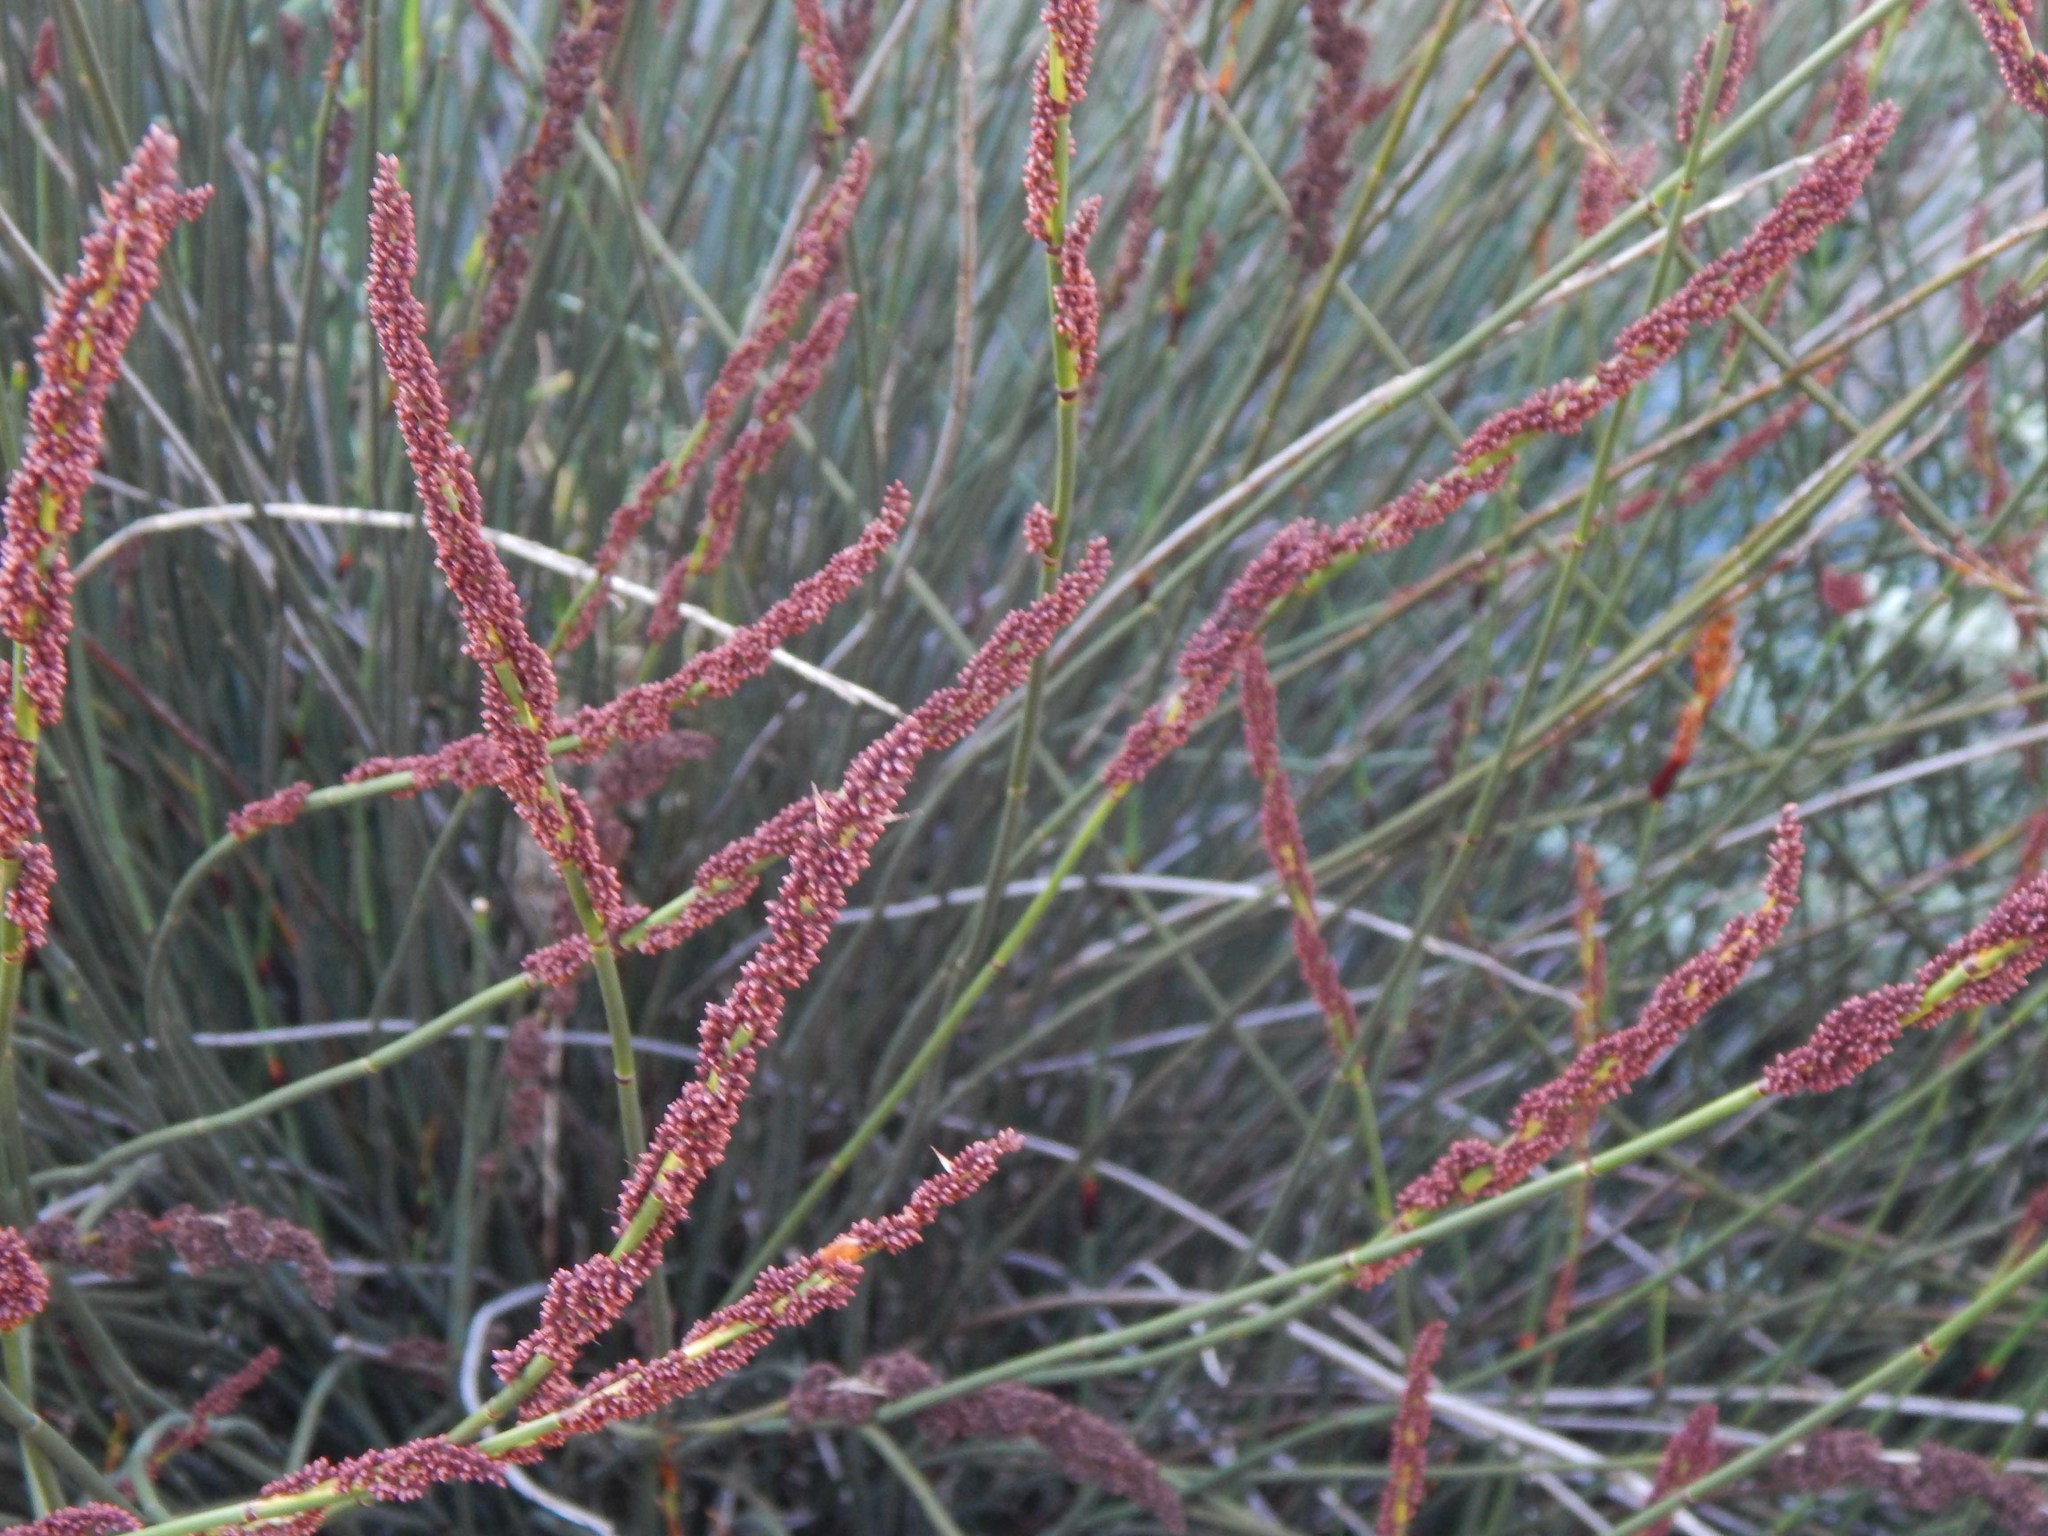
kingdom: Plantae
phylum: Tracheophyta
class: Liliopsida
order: Poales
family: Restionaceae
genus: Elegia
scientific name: Elegia tectorum
